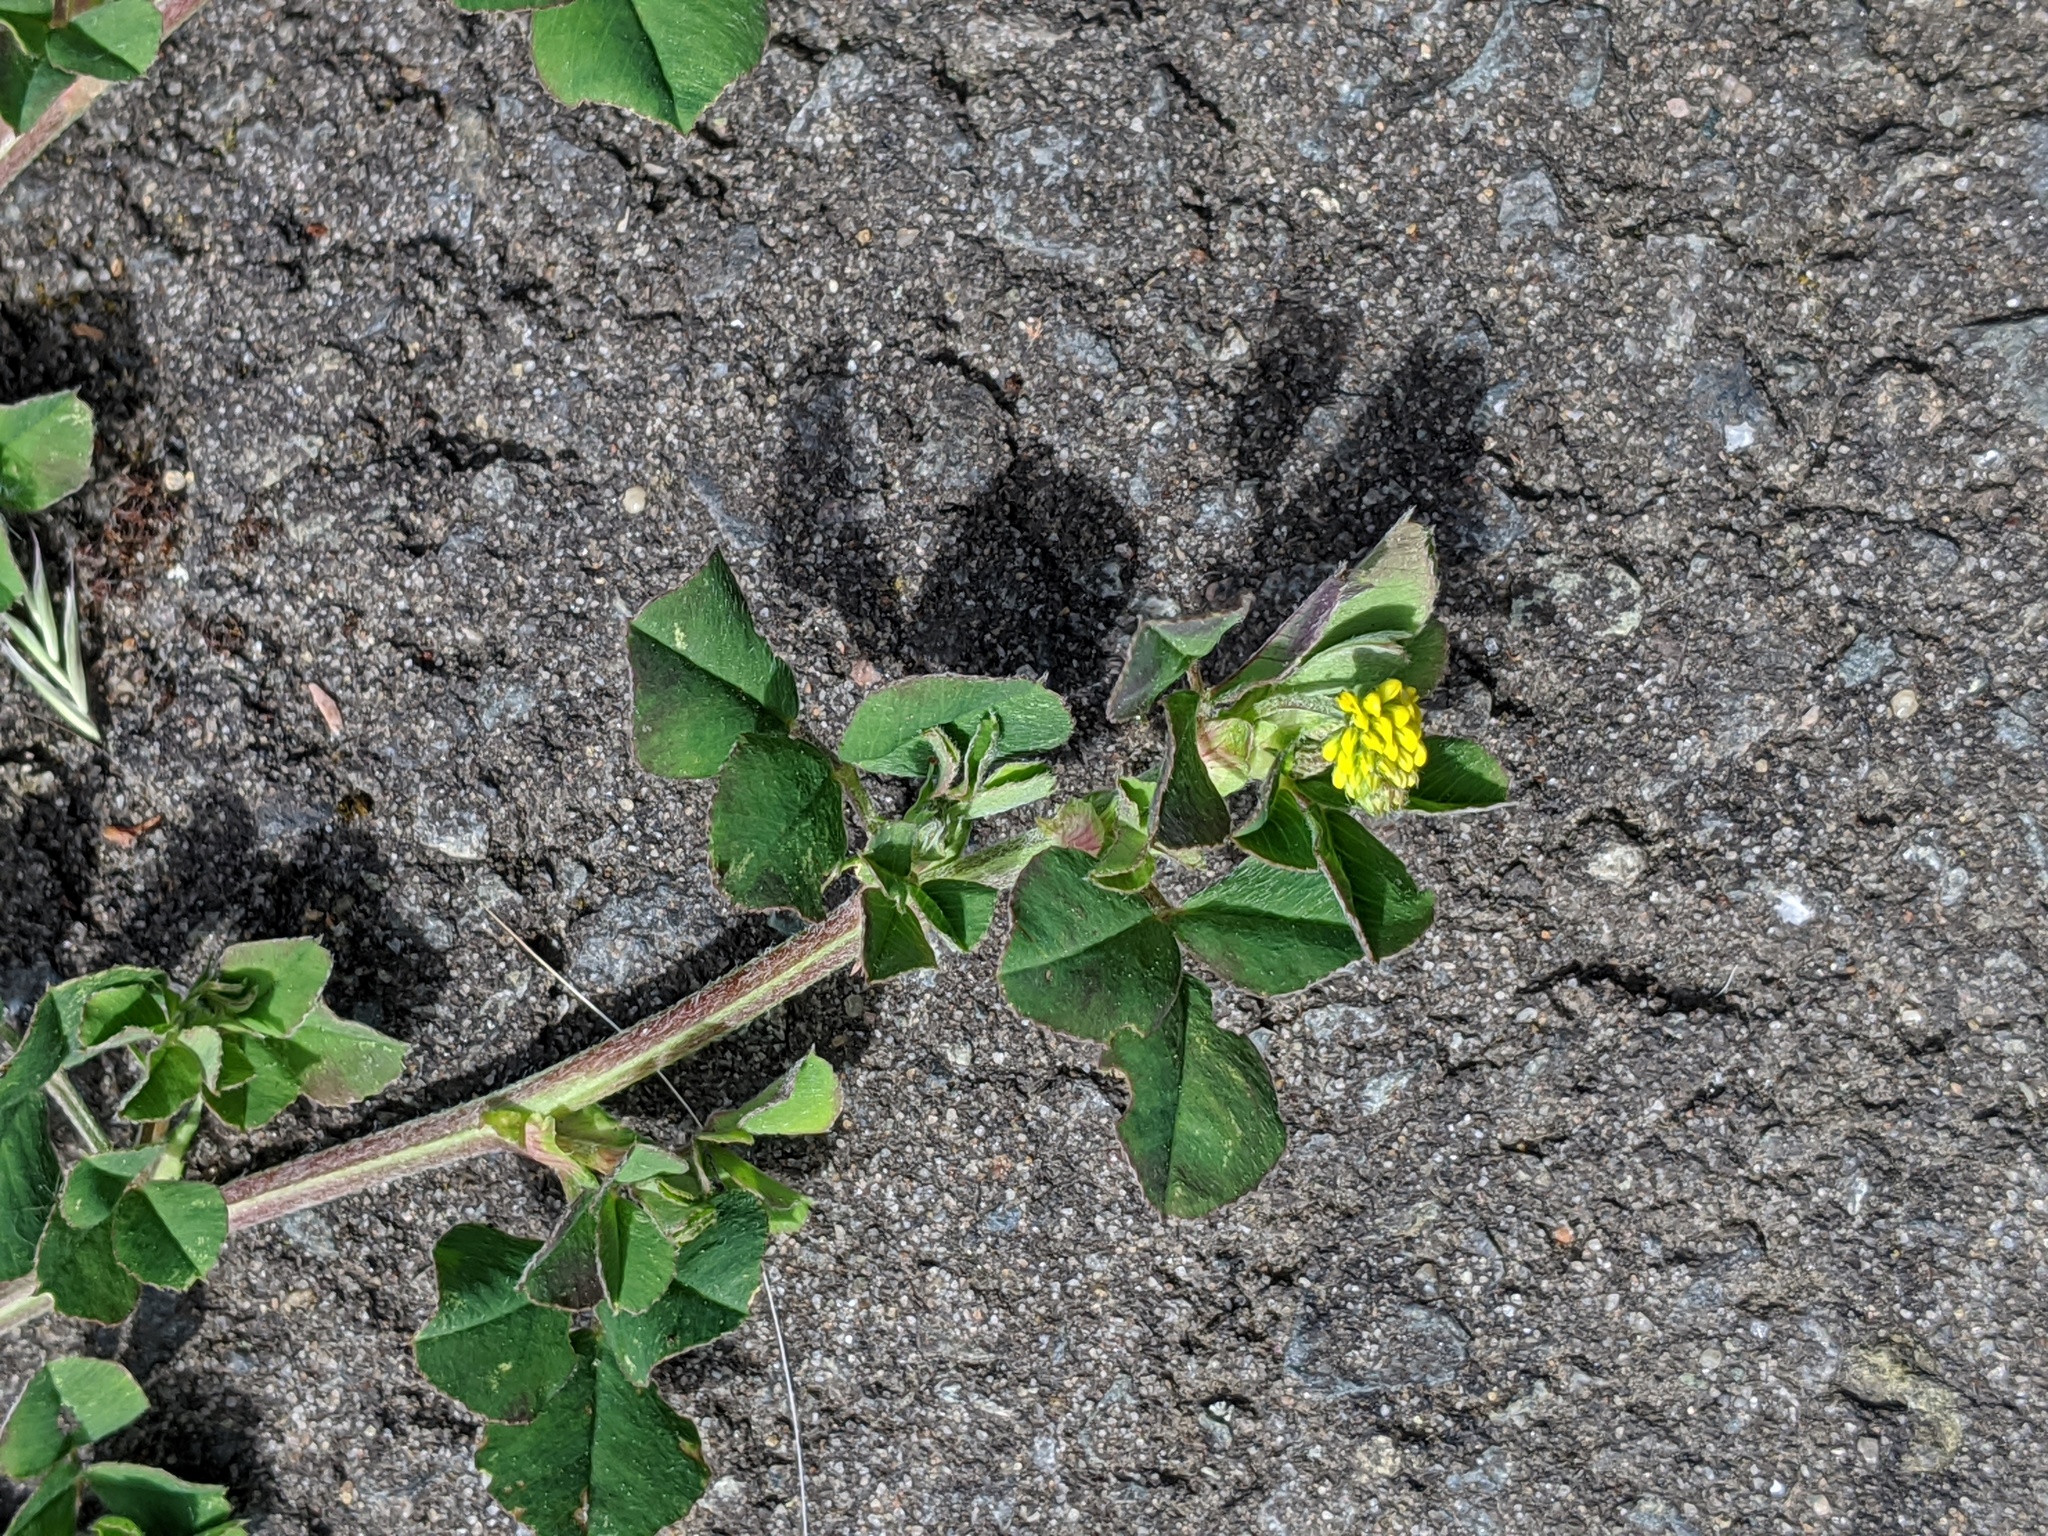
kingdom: Plantae
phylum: Tracheophyta
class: Magnoliopsida
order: Fabales
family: Fabaceae
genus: Medicago
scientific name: Medicago lupulina
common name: Black medick
